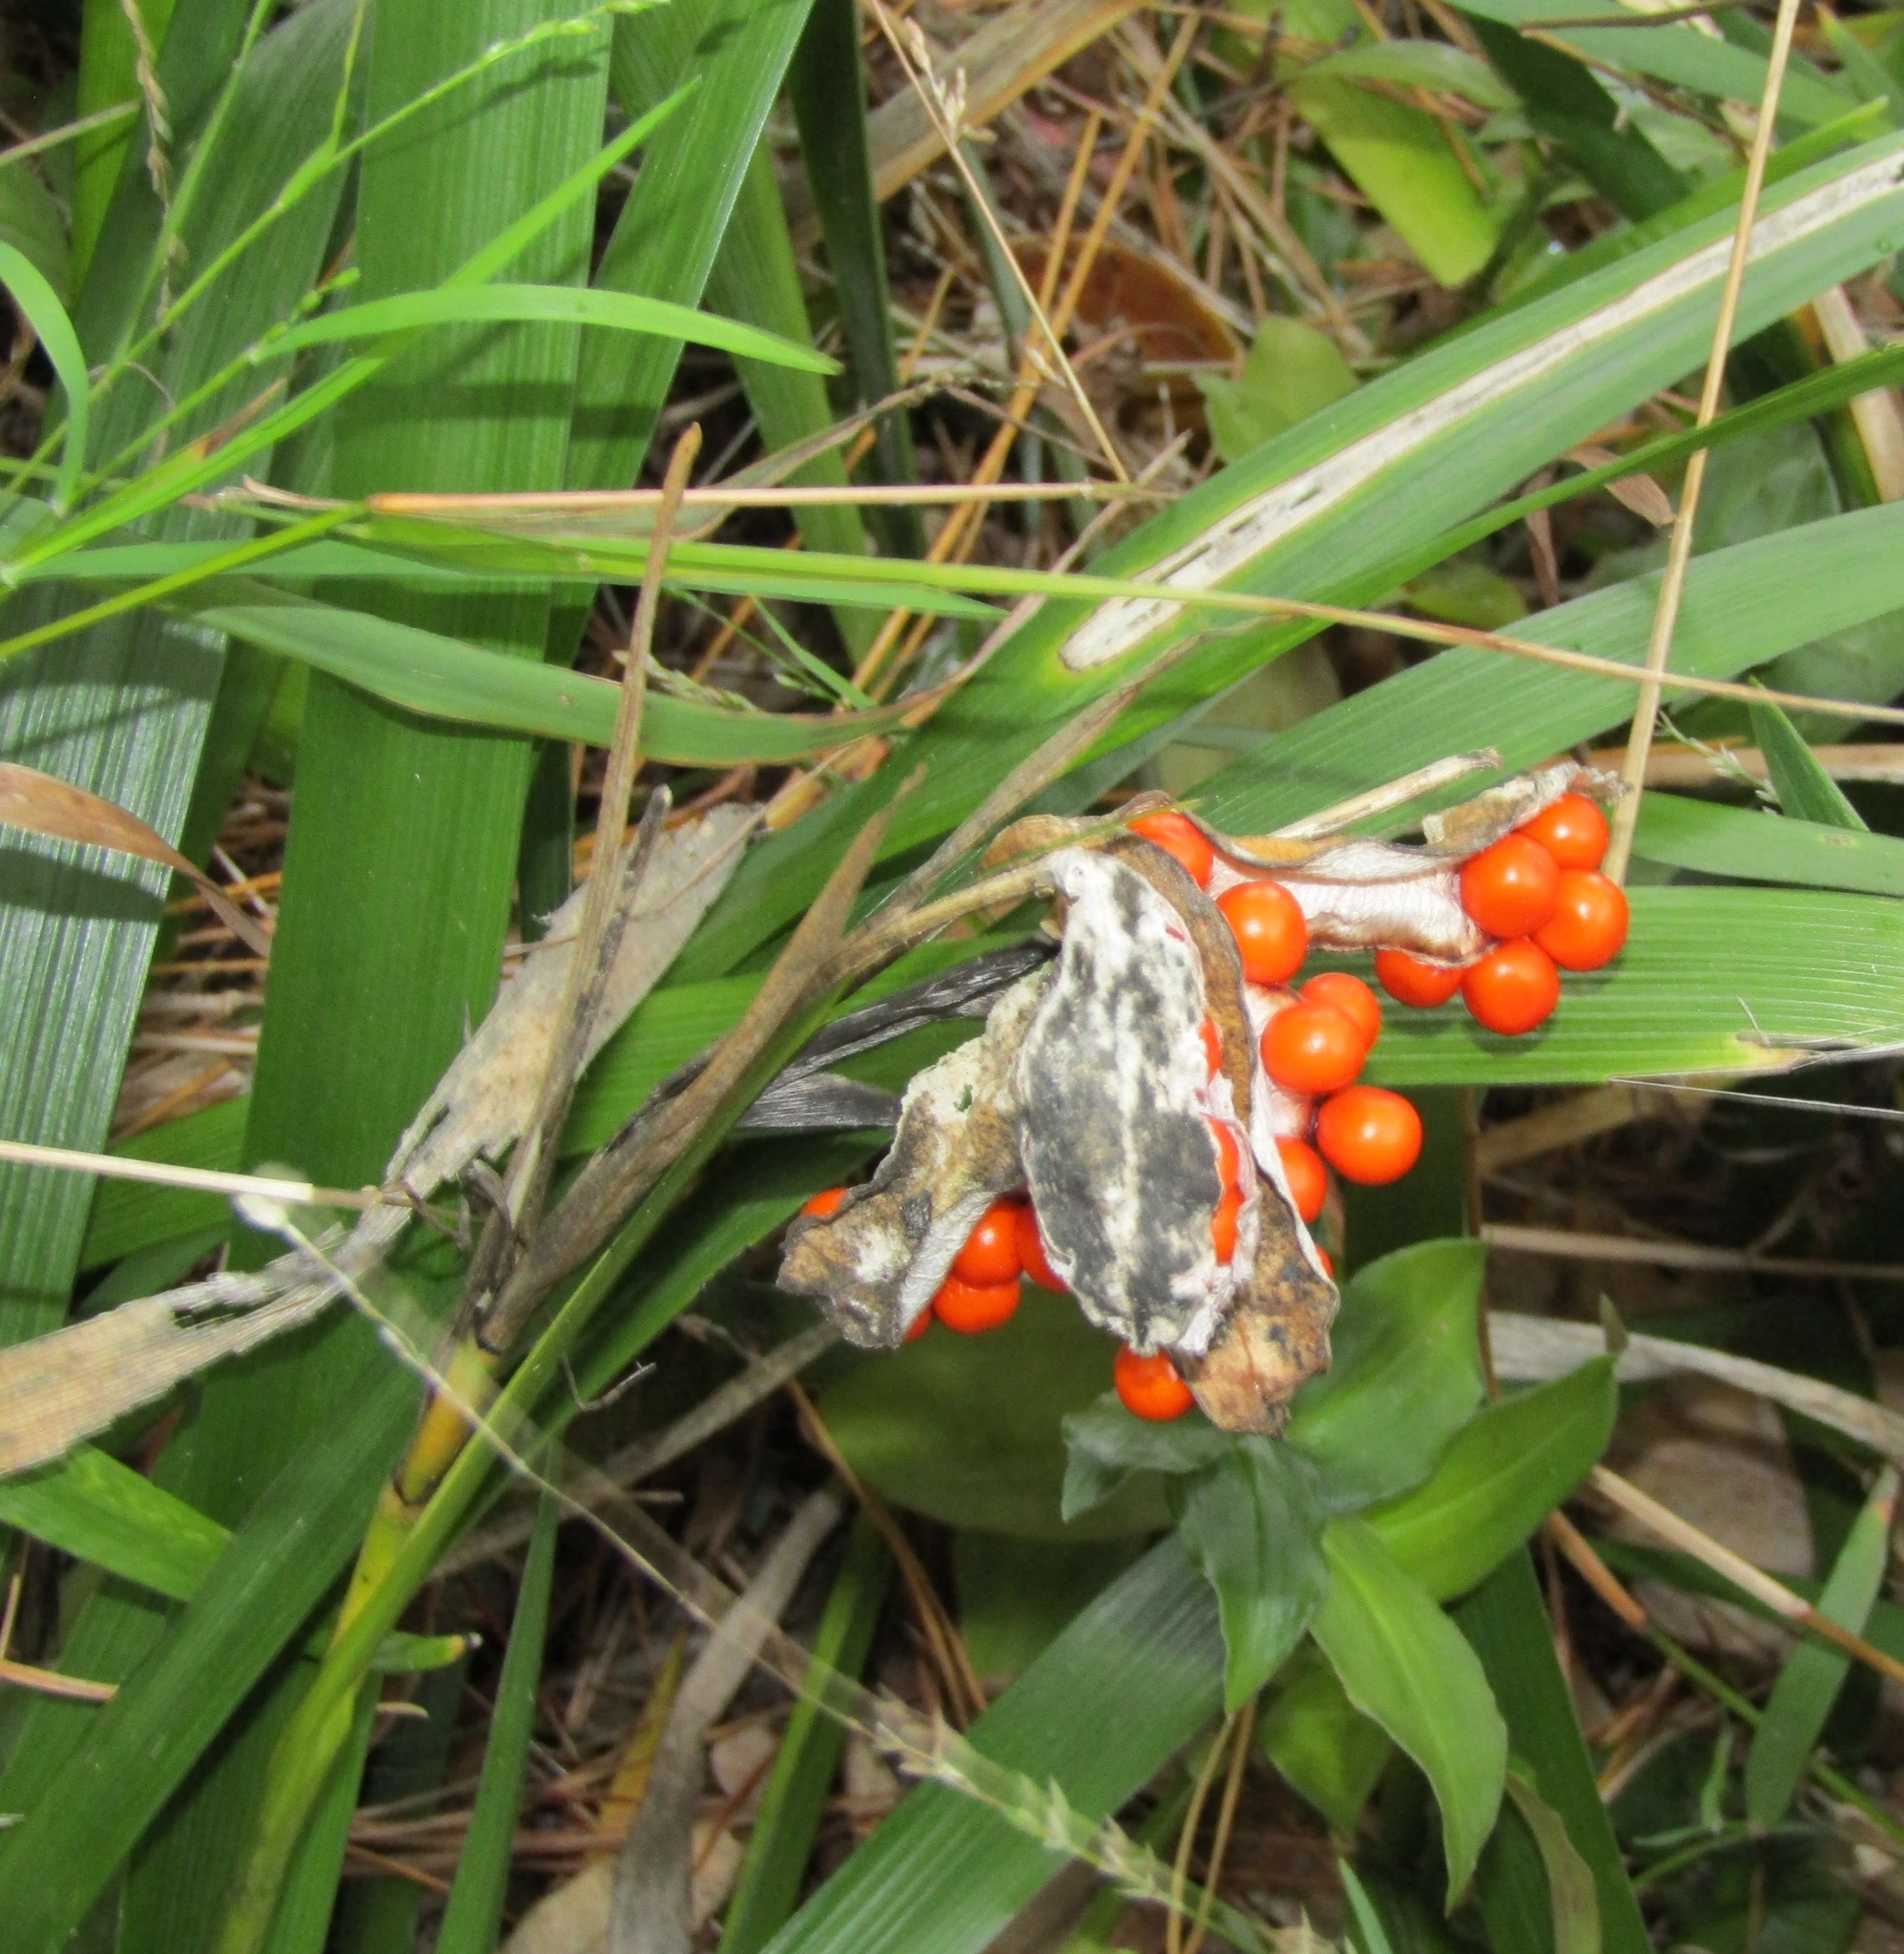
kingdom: Plantae
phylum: Tracheophyta
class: Liliopsida
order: Asparagales
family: Iridaceae
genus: Iris
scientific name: Iris foetidissima
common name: Stinking iris
